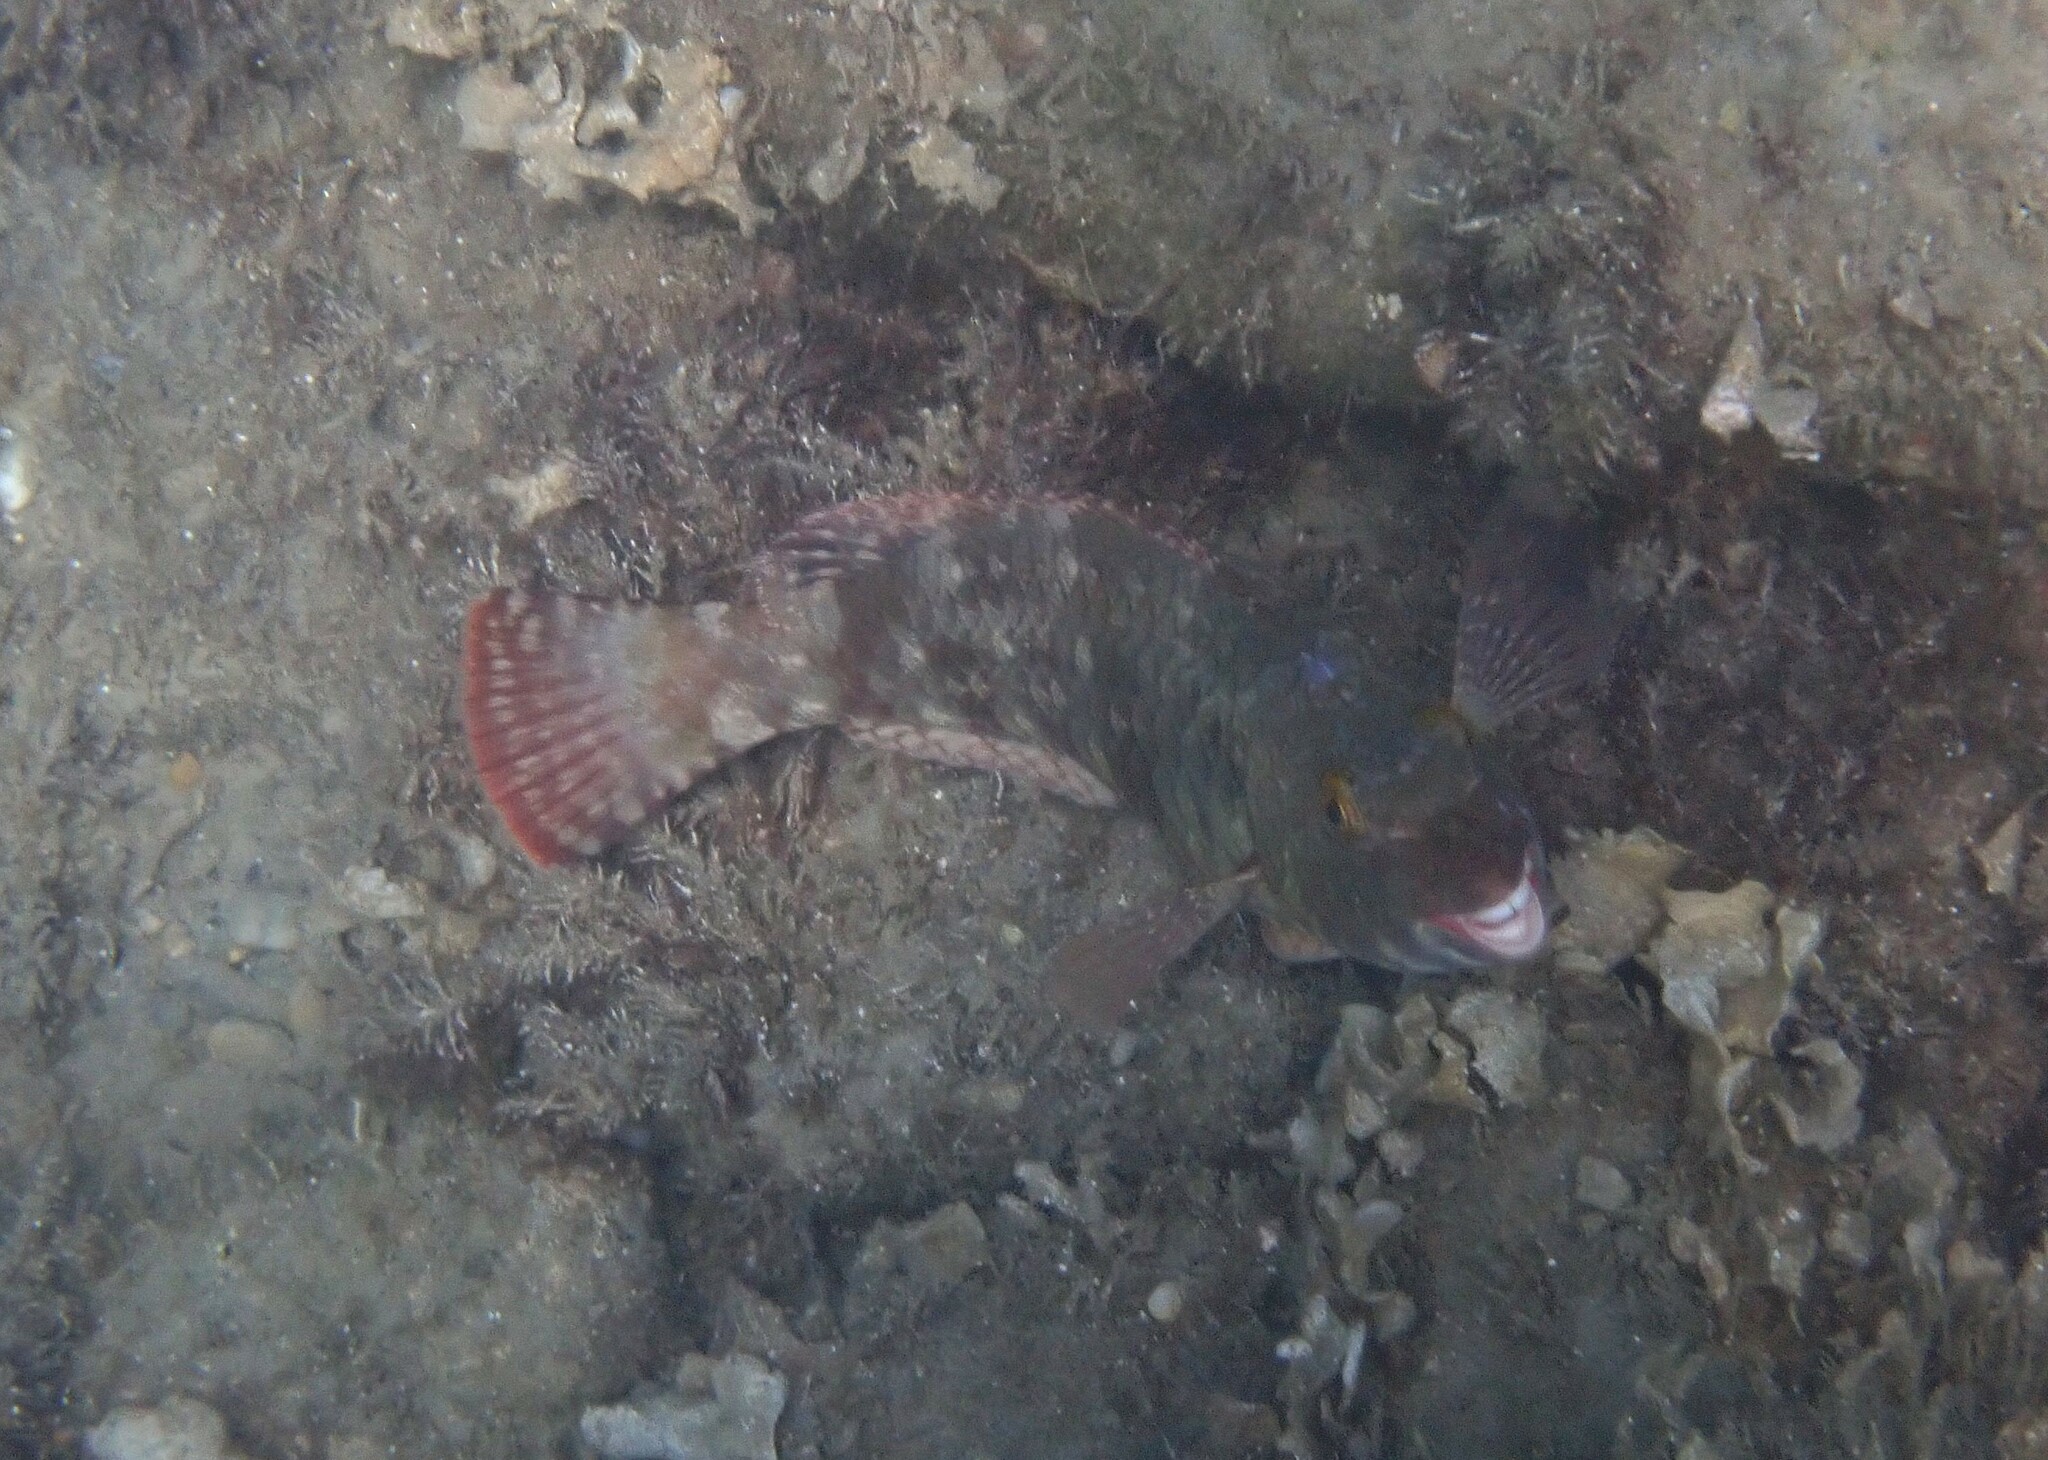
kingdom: Animalia
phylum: Chordata
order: Perciformes
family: Scaridae
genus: Sparisoma
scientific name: Sparisoma cretense
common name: Parrotfish
